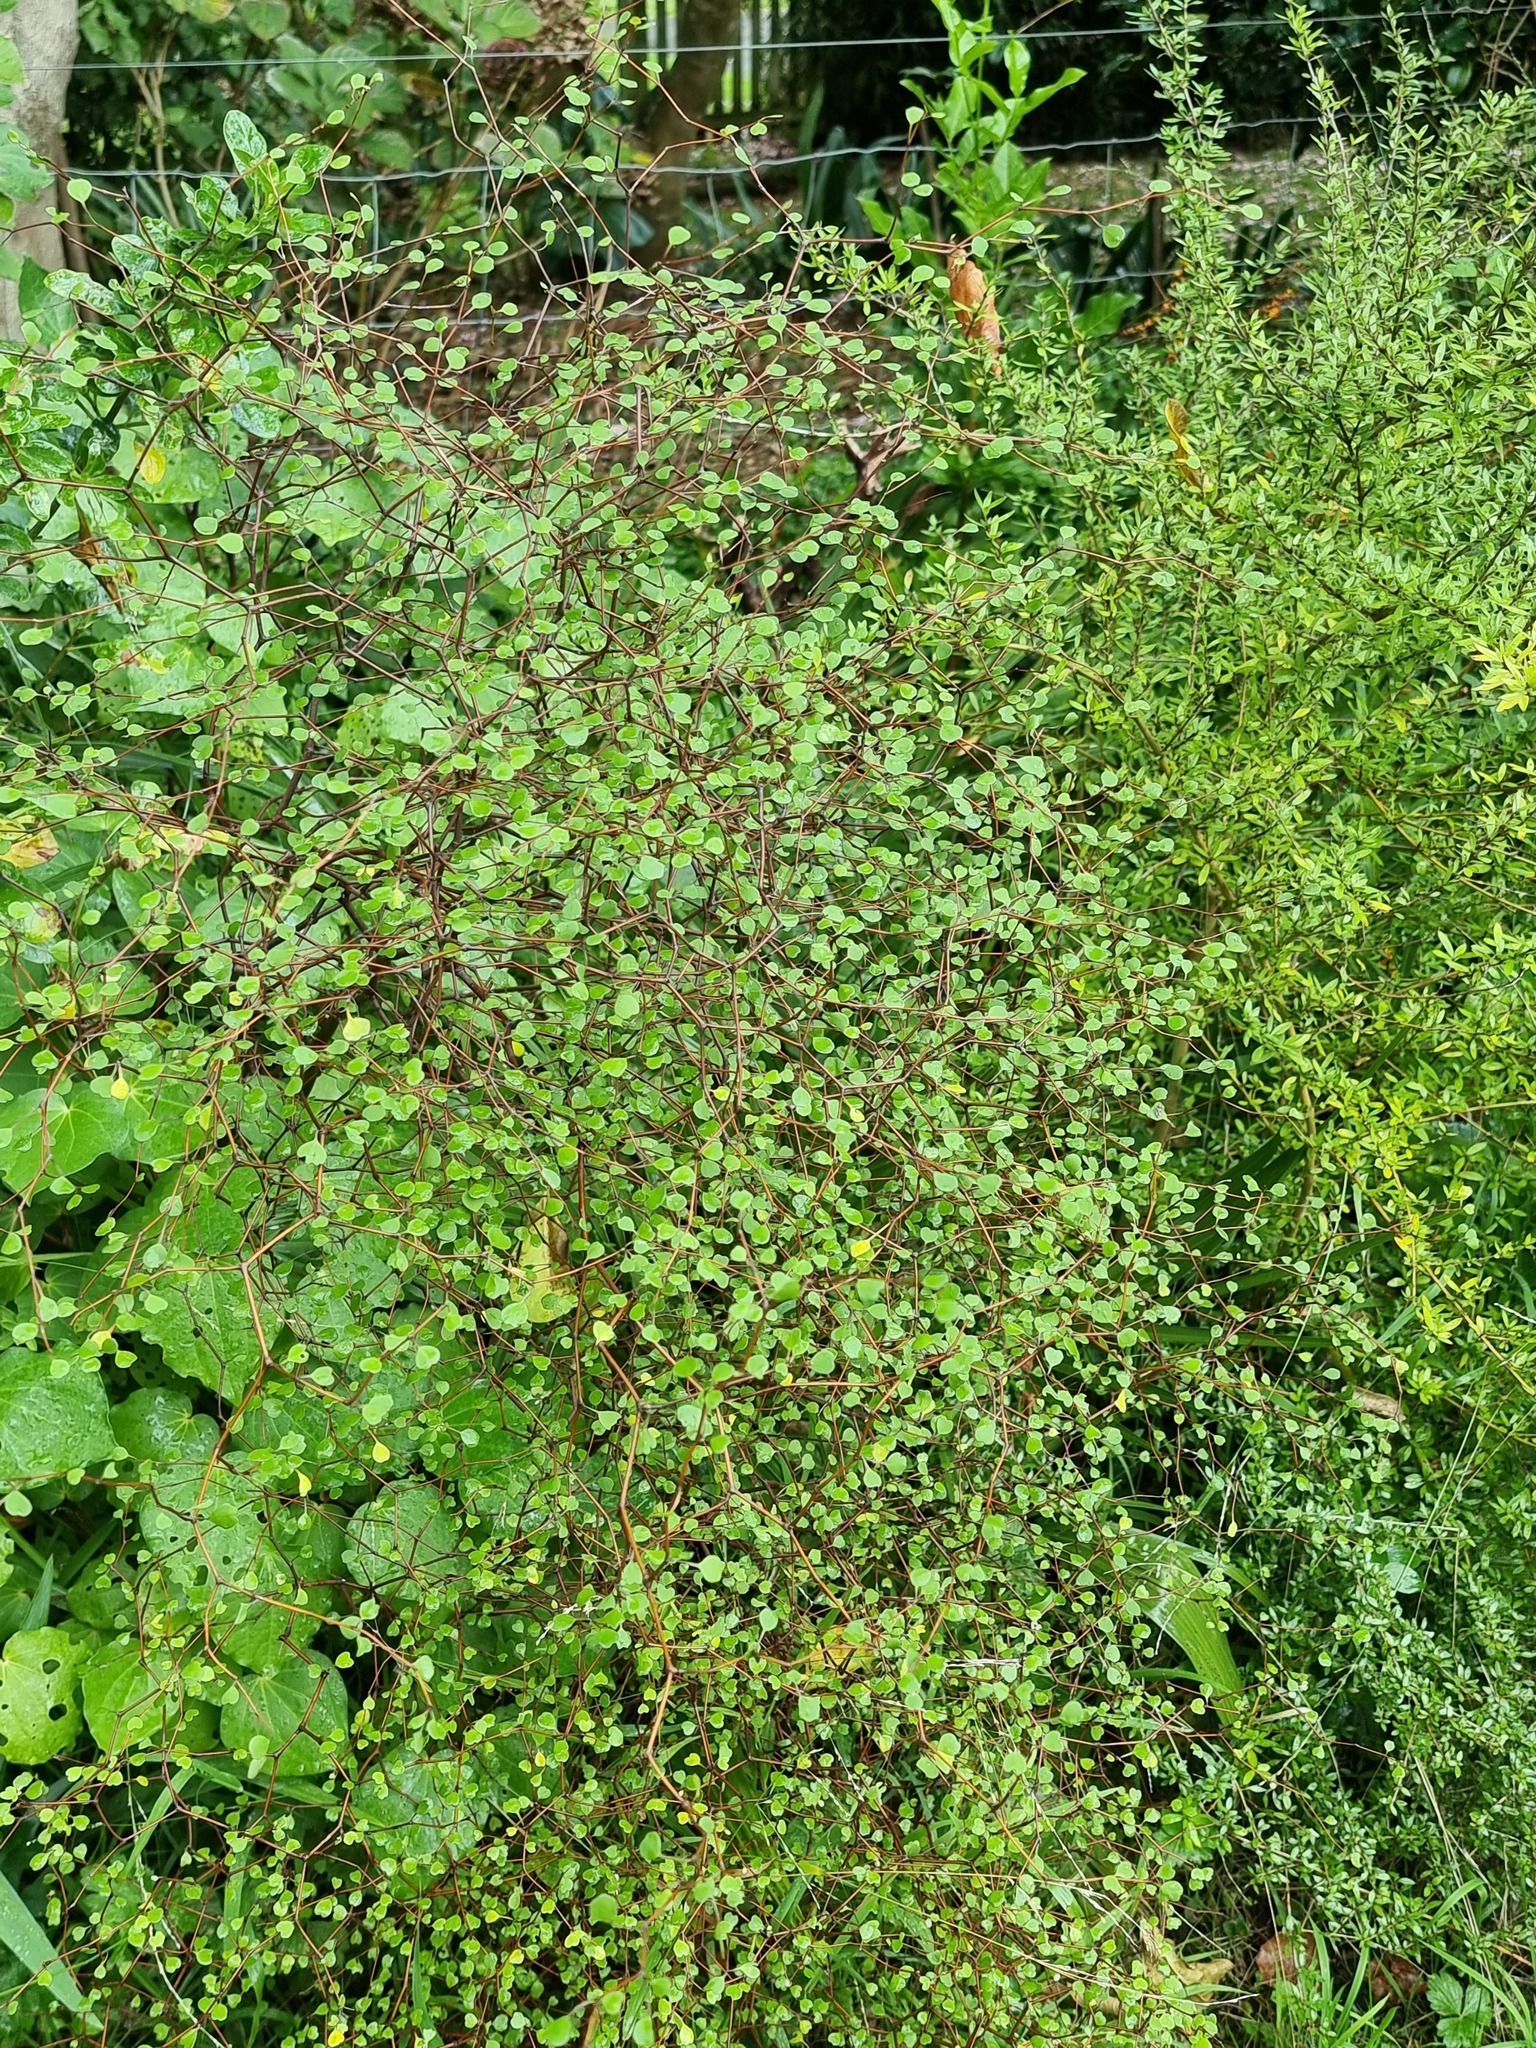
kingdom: Plantae
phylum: Tracheophyta
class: Magnoliopsida
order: Caryophyllales
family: Polygonaceae
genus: Muehlenbeckia
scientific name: Muehlenbeckia astonii
